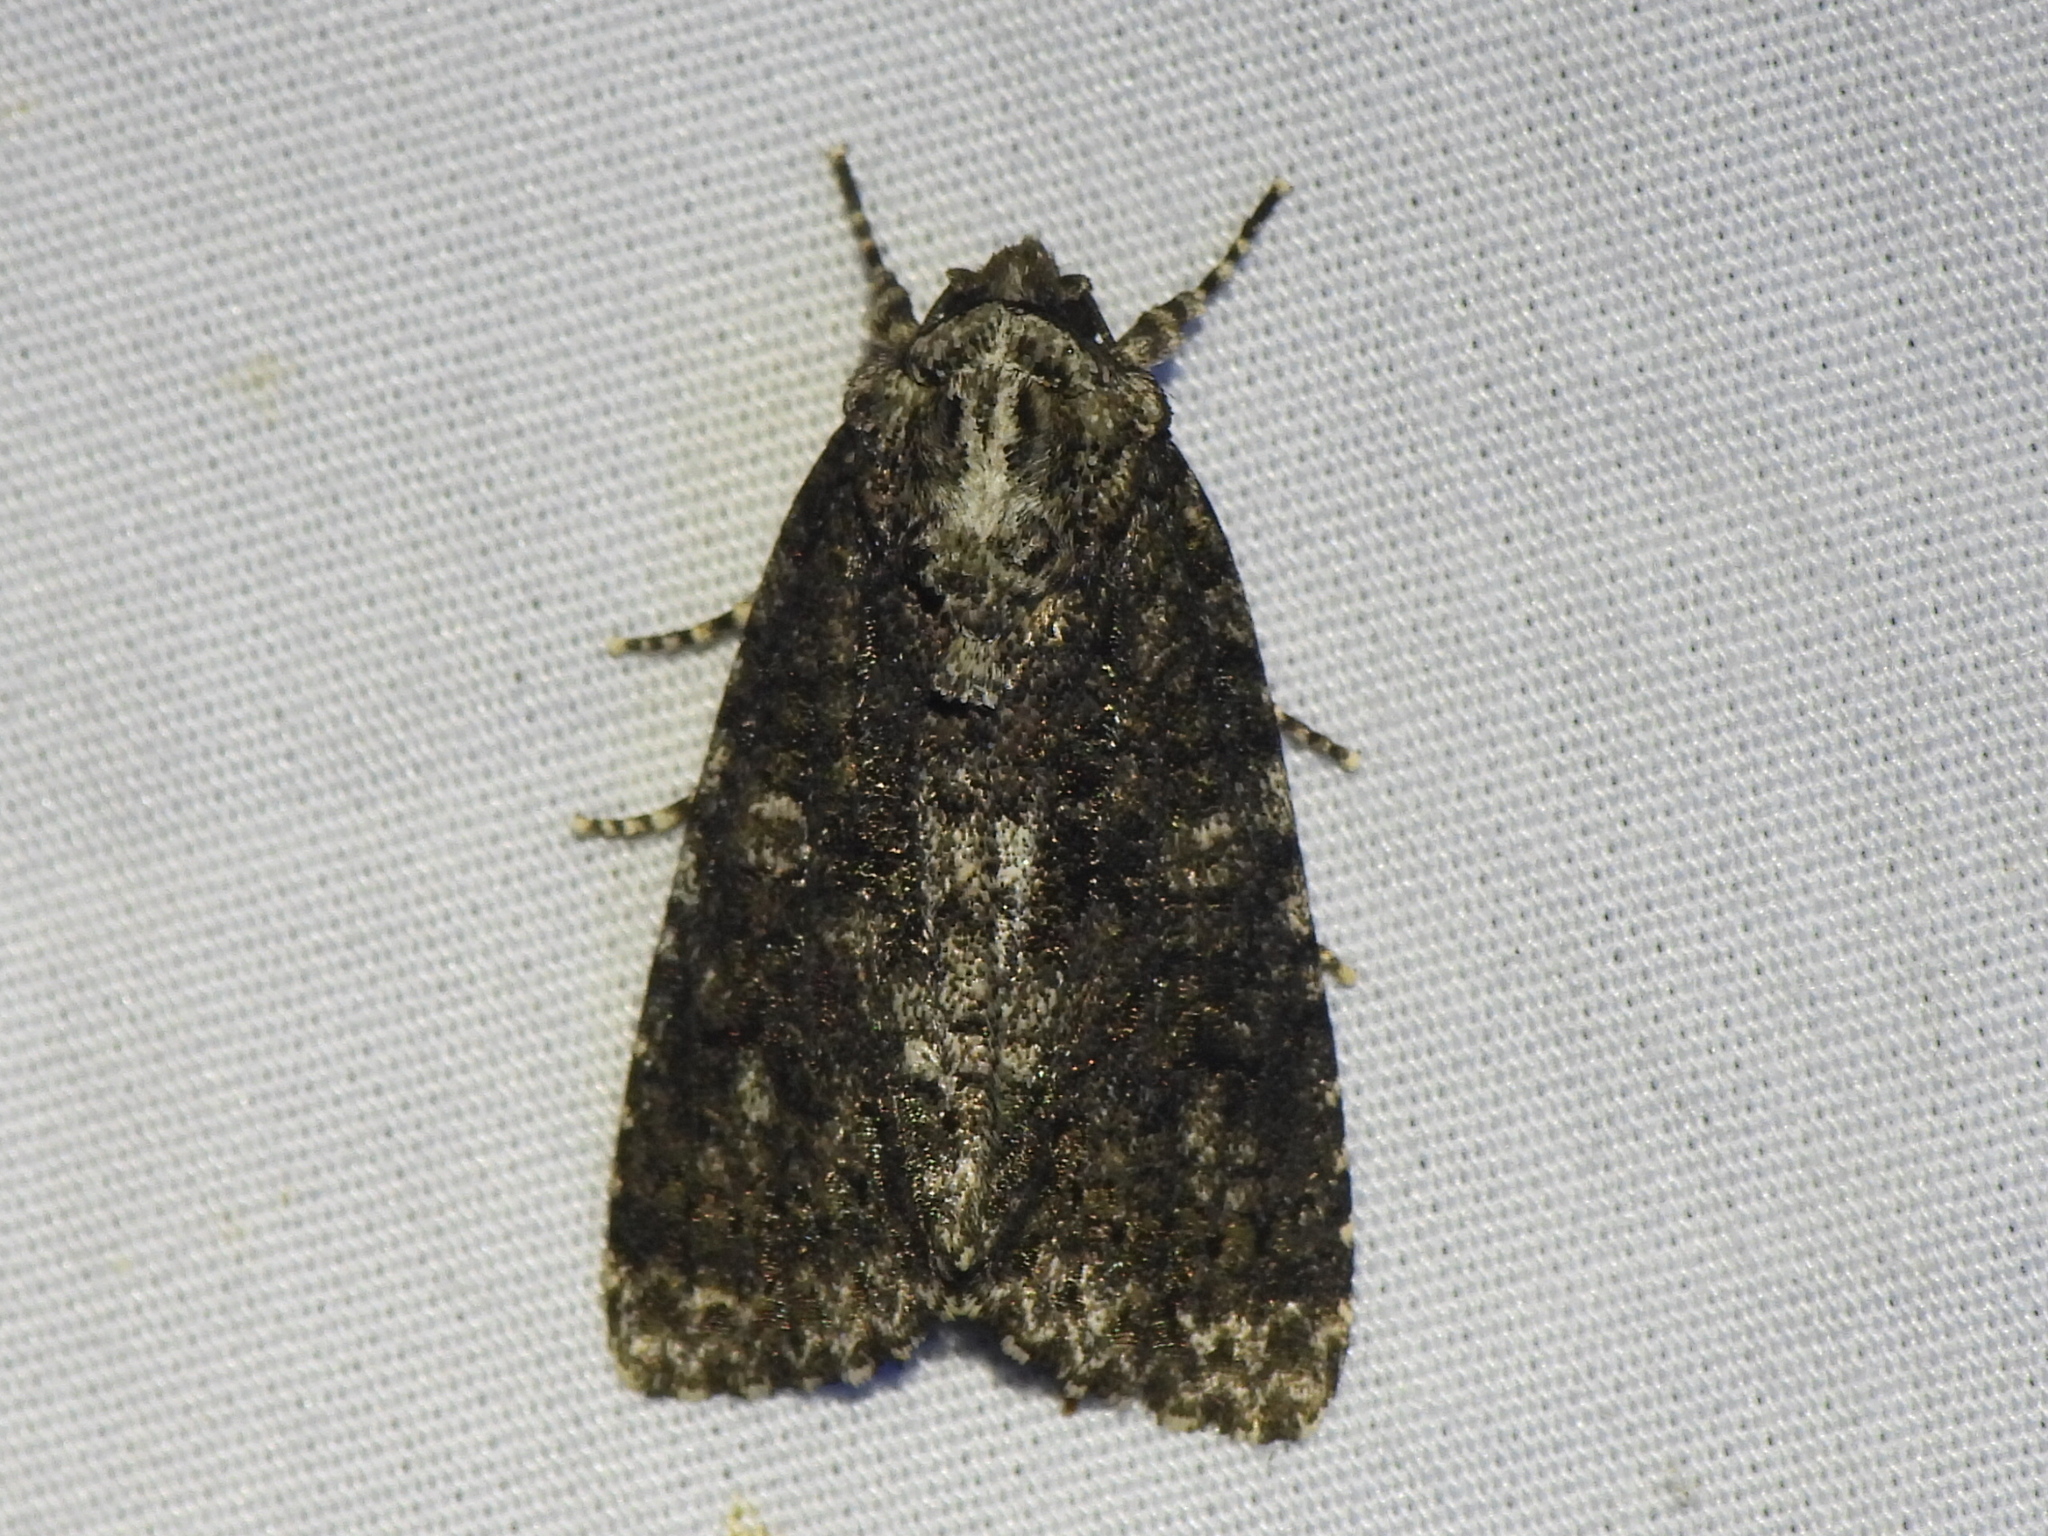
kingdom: Animalia
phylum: Arthropoda
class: Insecta
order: Lepidoptera
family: Noctuidae
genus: Acronicta
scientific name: Acronicta afflicta
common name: Afflicted dagger moth
